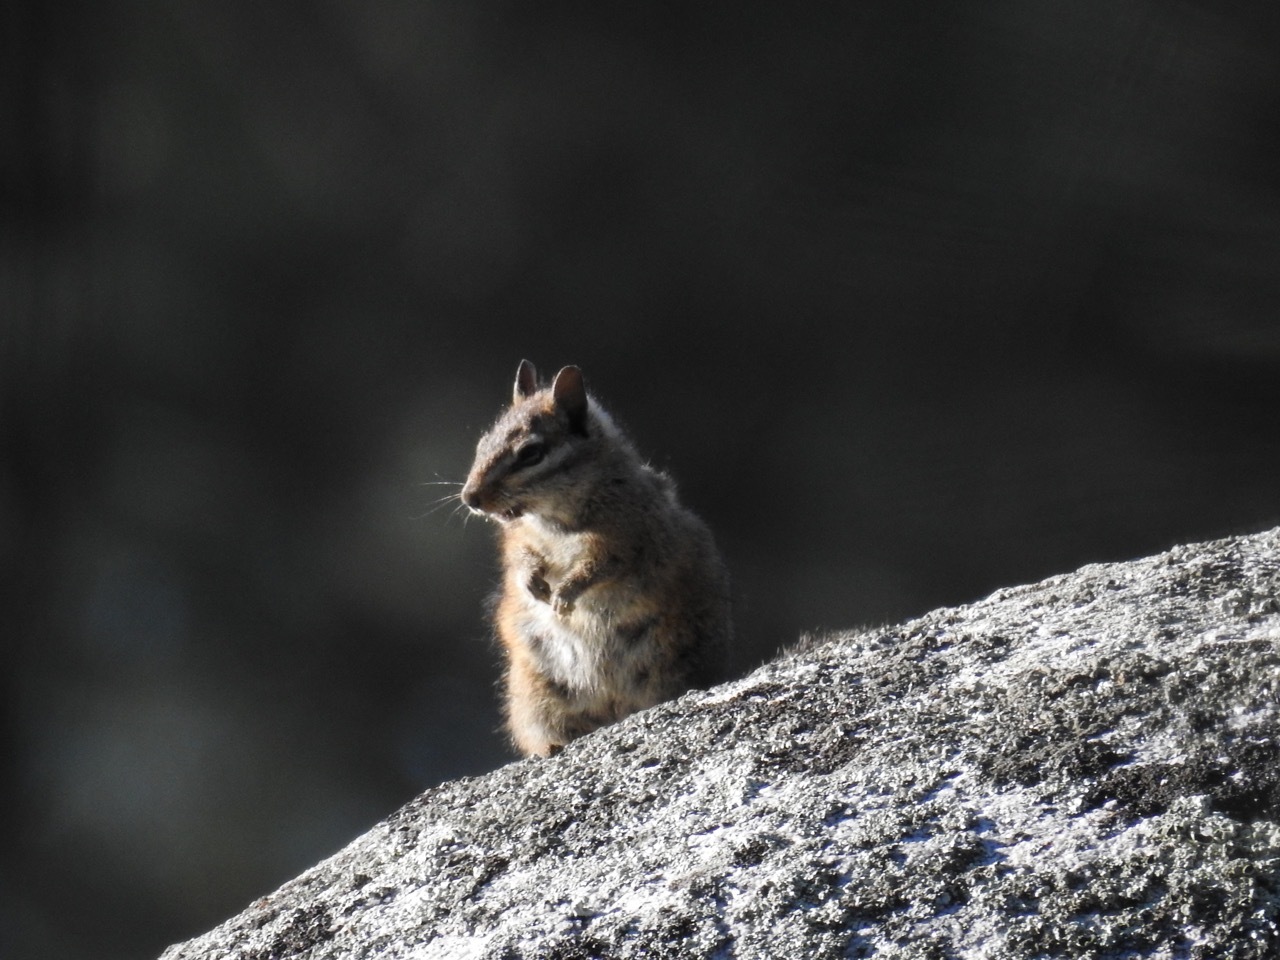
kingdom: Animalia
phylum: Chordata
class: Mammalia
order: Rodentia
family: Sciuridae
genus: Tamias
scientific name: Tamias obscurus
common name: California chipmunk
